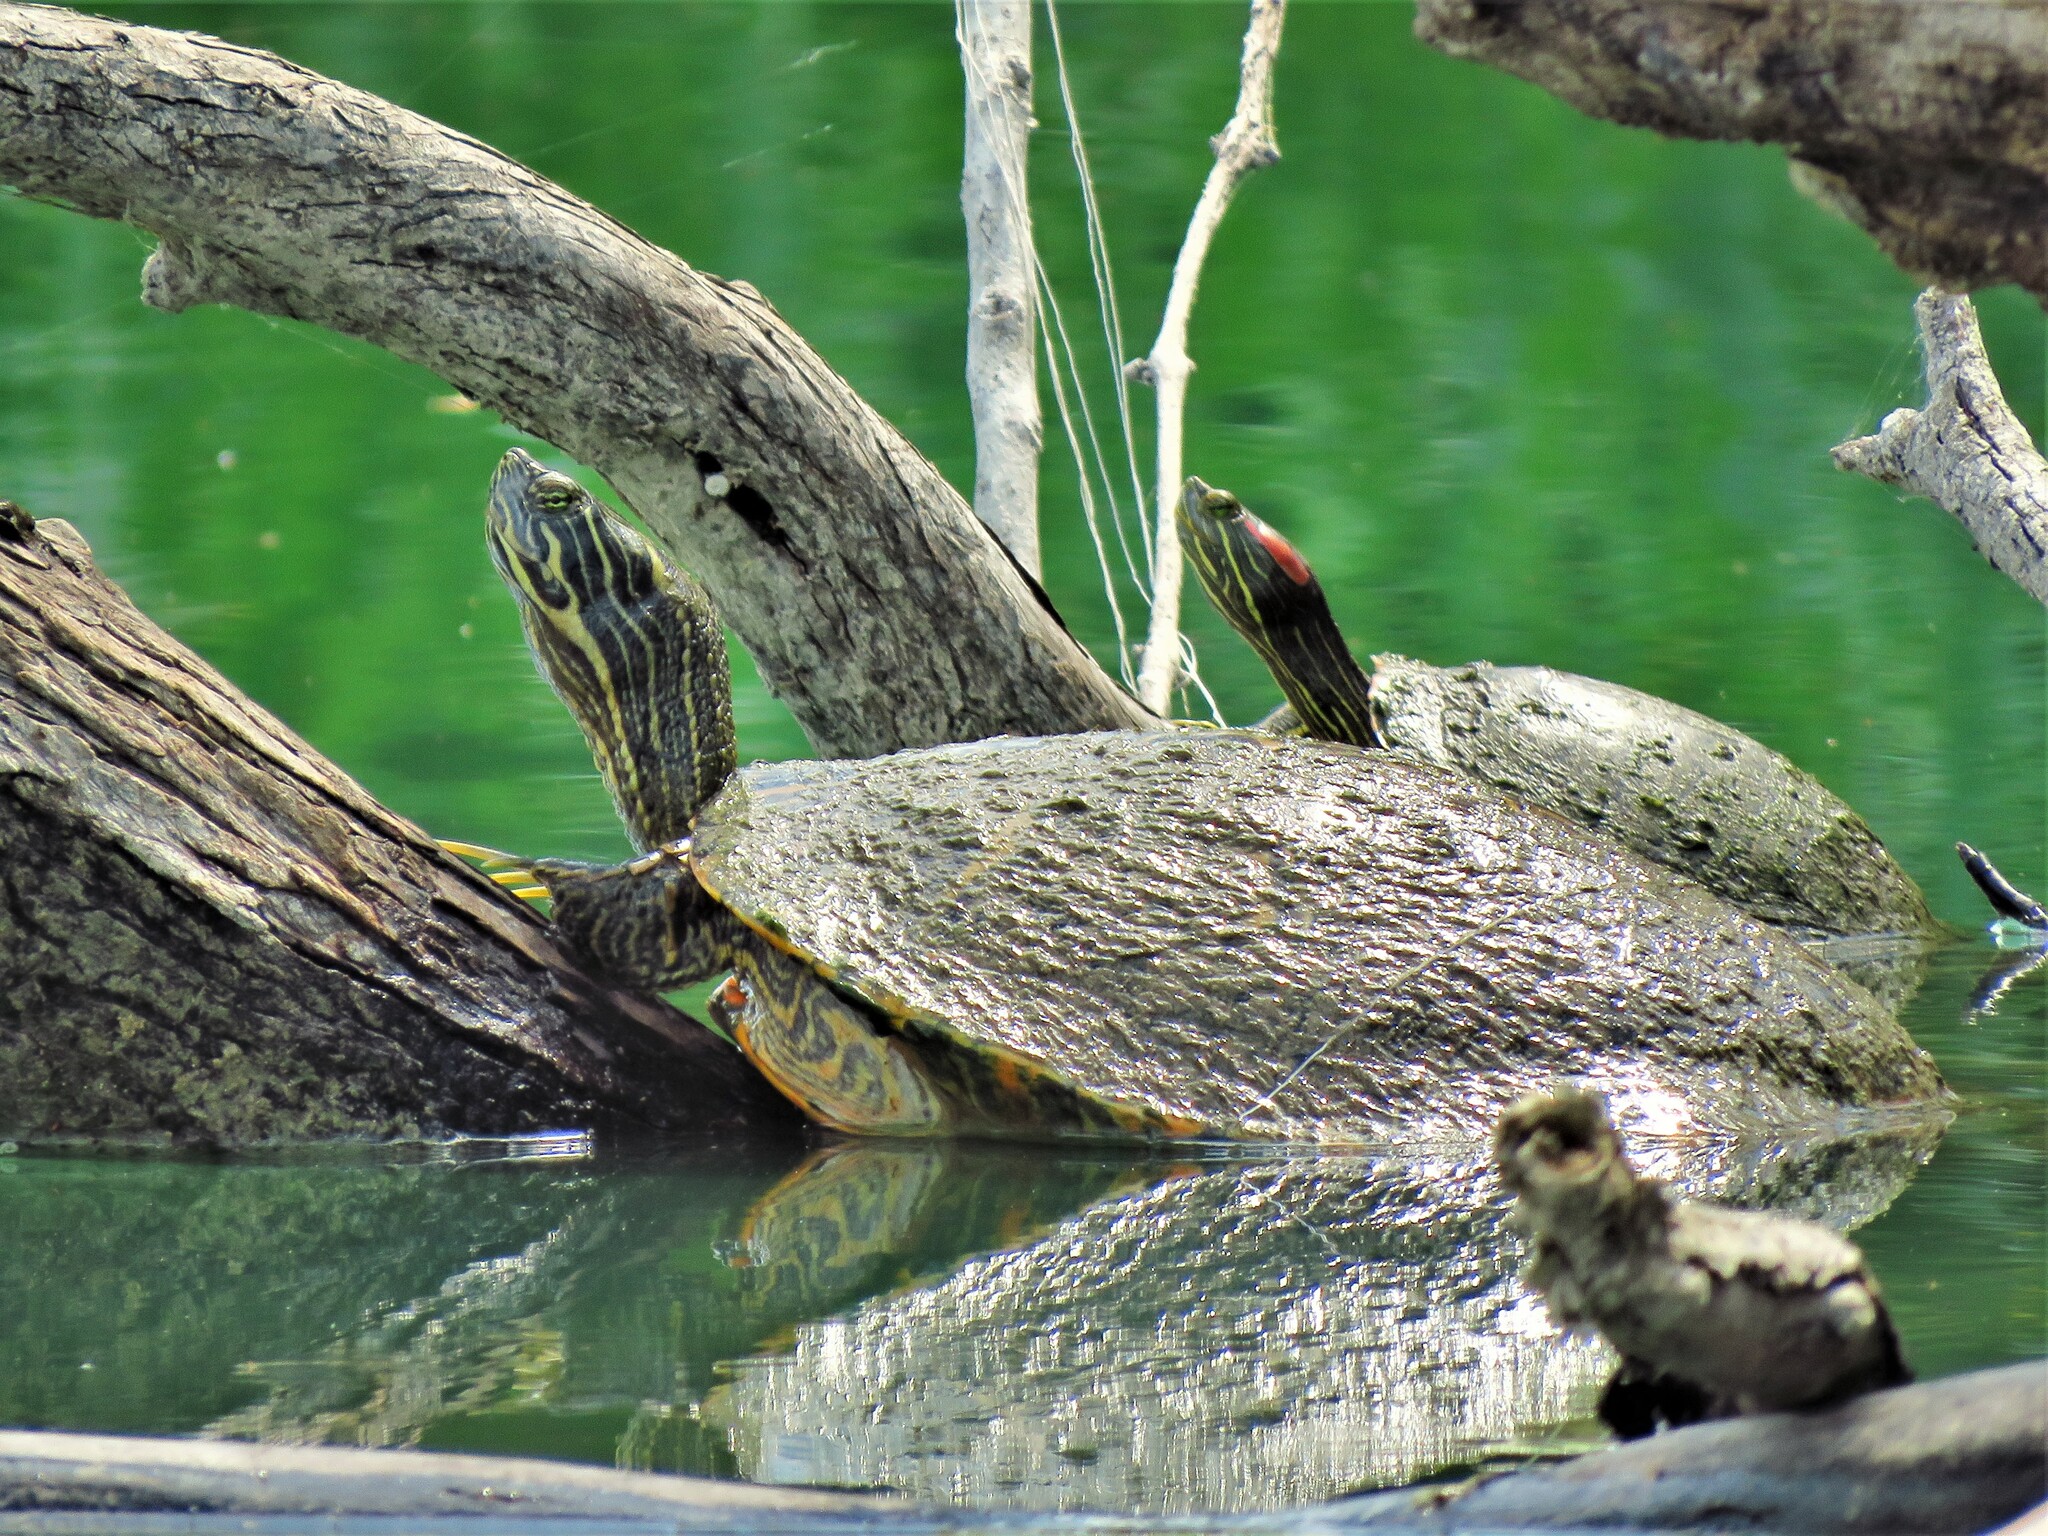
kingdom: Animalia
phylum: Chordata
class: Testudines
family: Emydidae
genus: Pseudemys
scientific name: Pseudemys concinna
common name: Eastern river cooter
